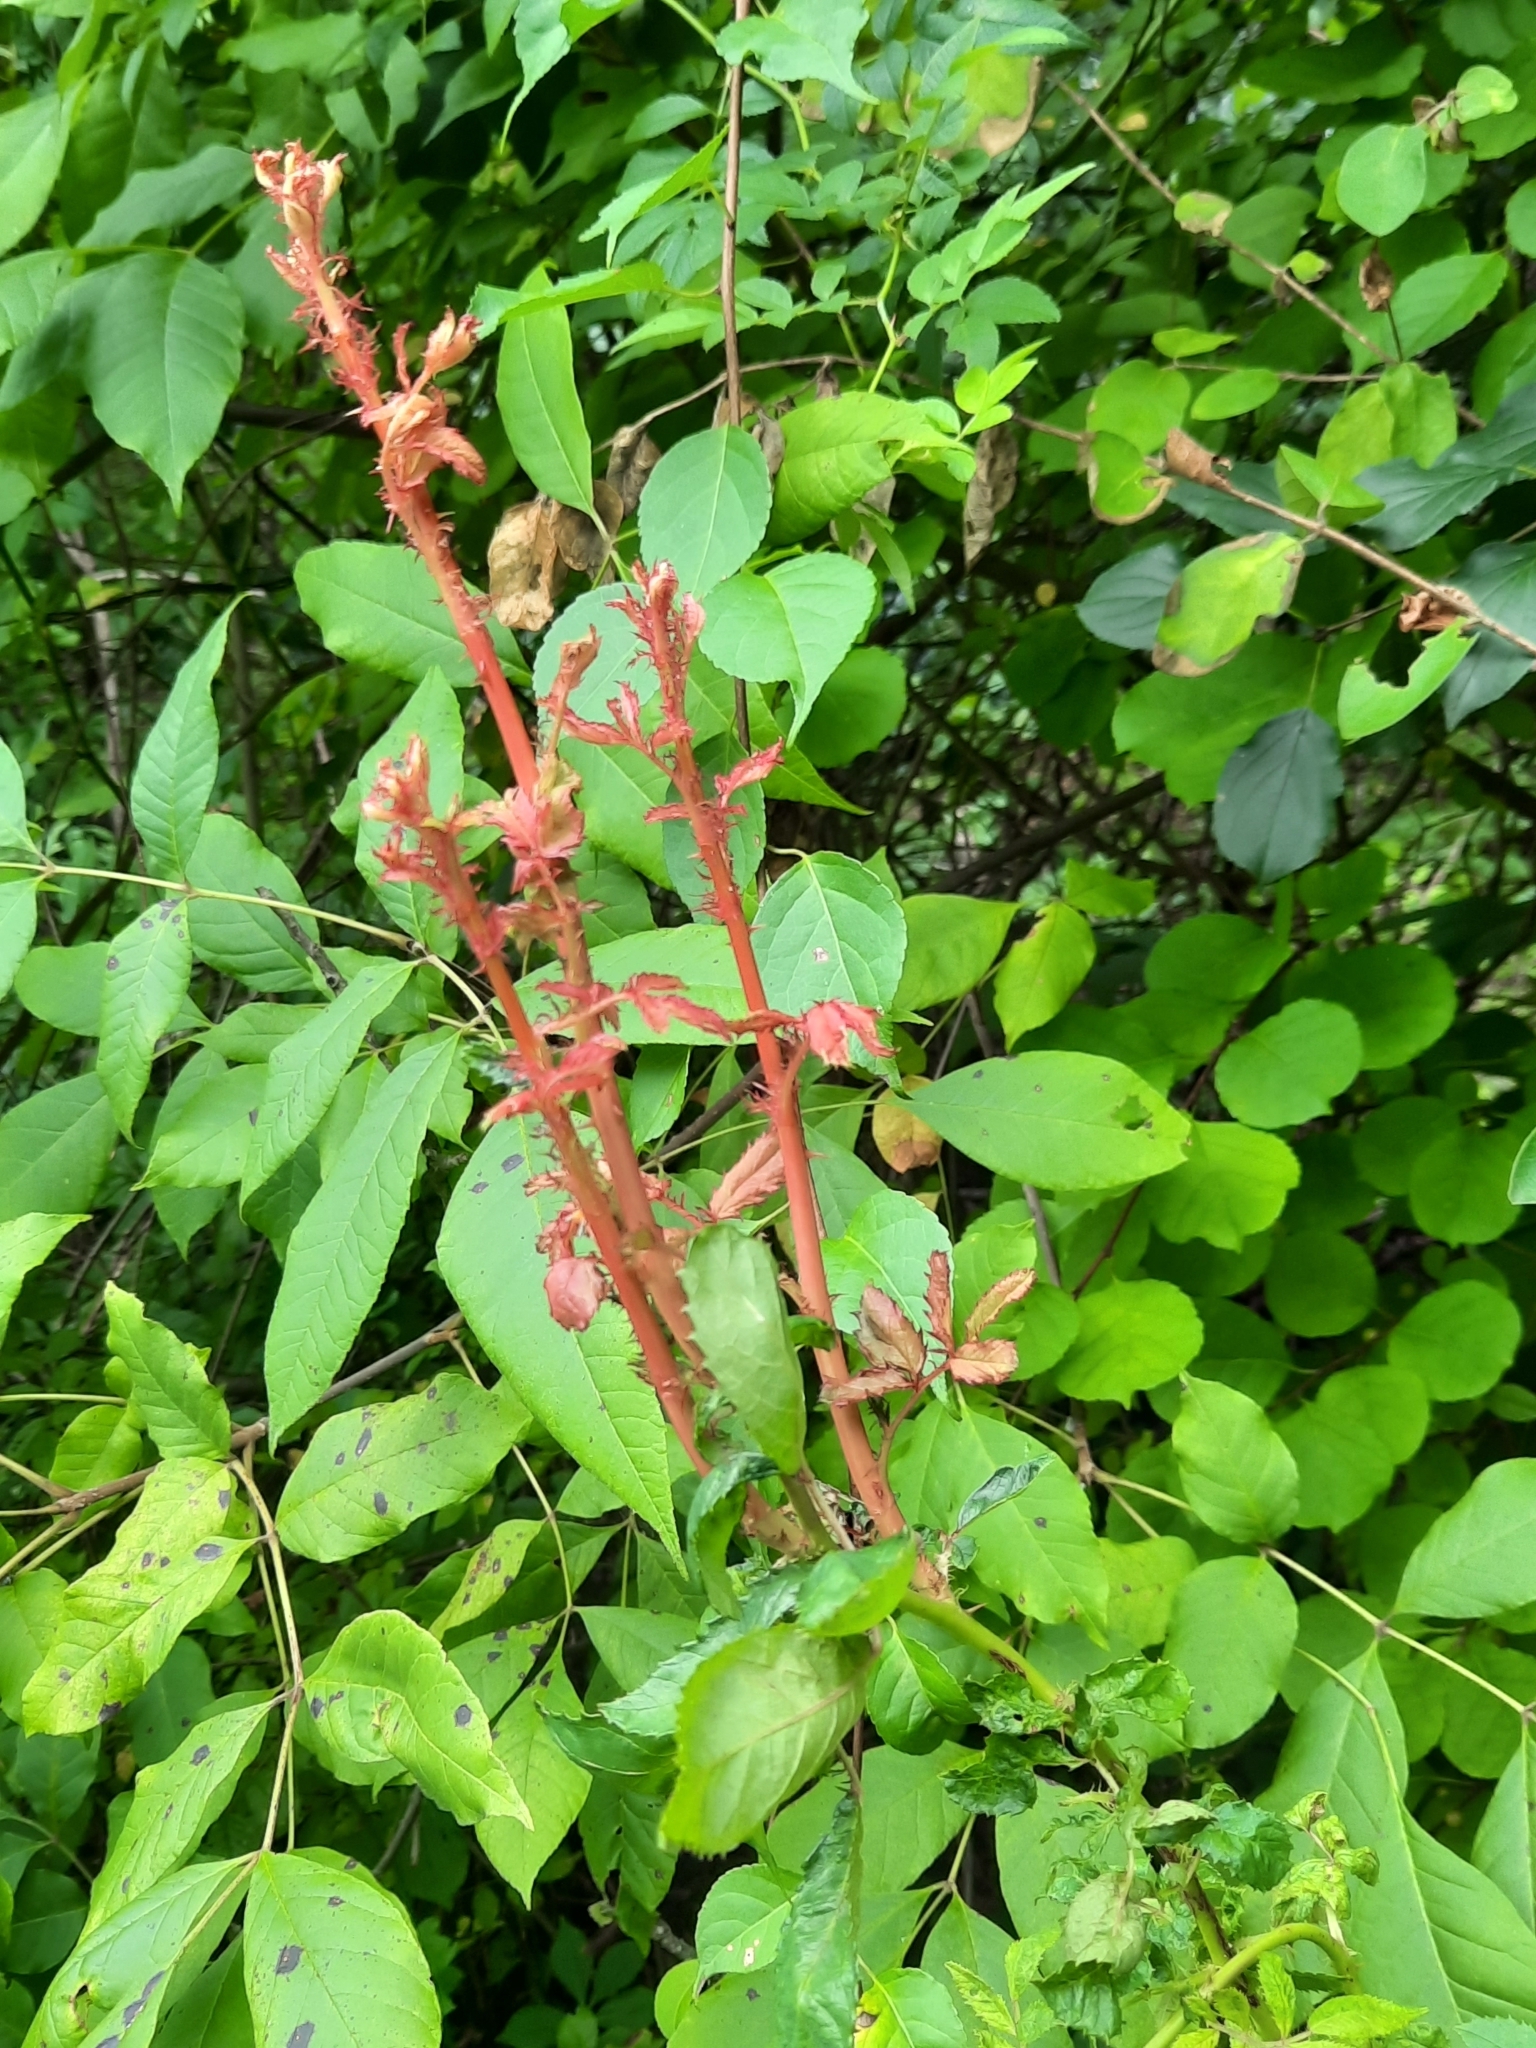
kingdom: Viruses
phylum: Negarnaviricota
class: Ellioviricetes
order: Bunyavirales
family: Fimoviridae
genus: Emaravirus
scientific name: Emaravirus rosae
